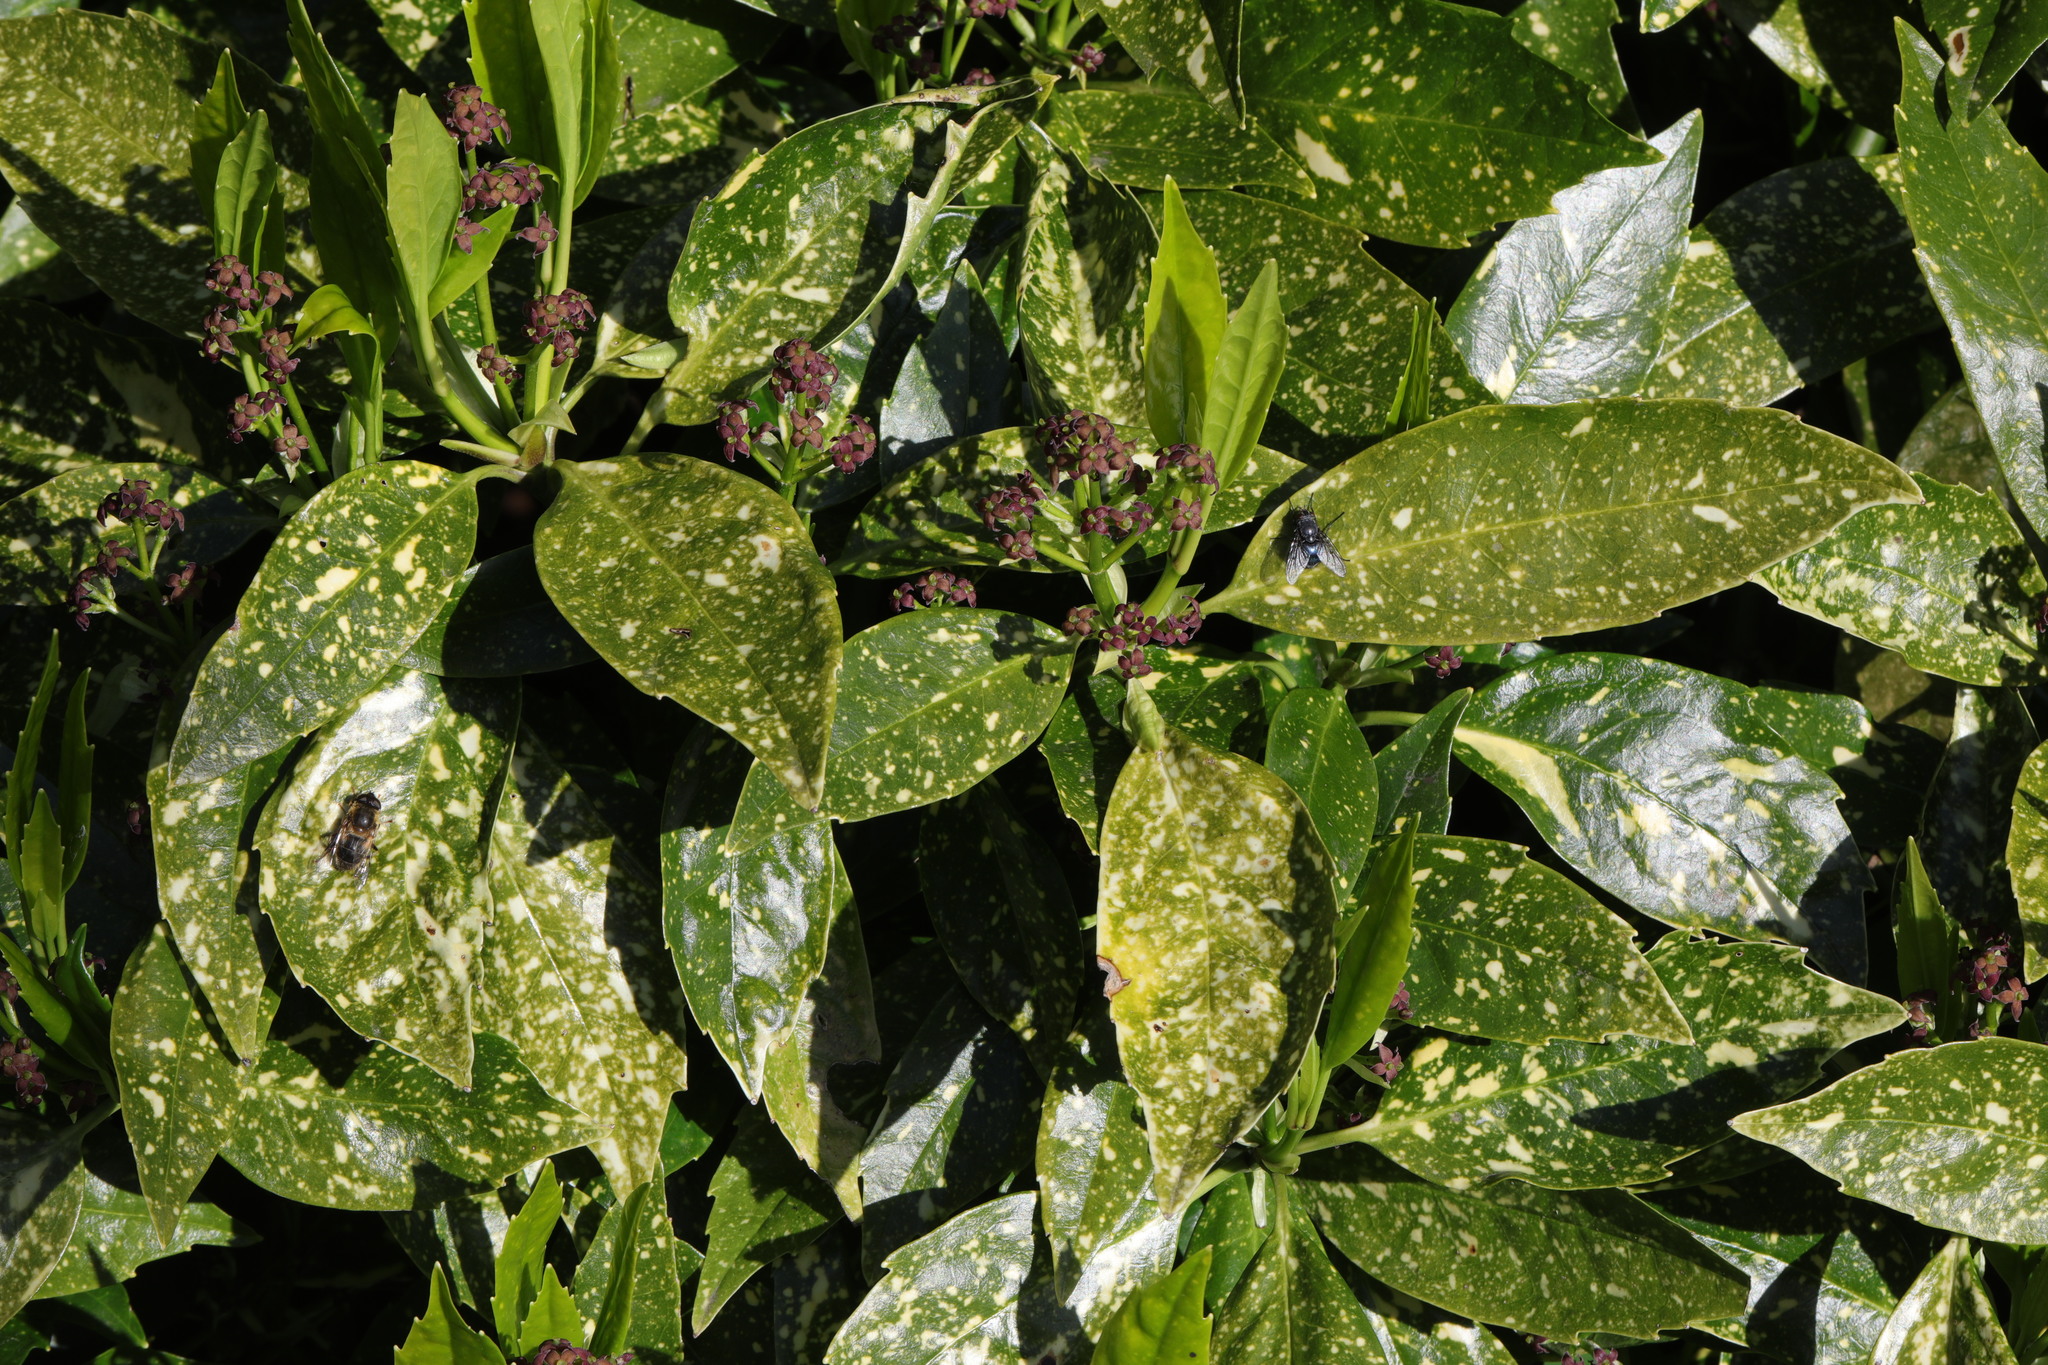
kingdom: Plantae
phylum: Tracheophyta
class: Magnoliopsida
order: Garryales
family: Garryaceae
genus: Aucuba
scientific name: Aucuba japonica
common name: Spotted-laurel
